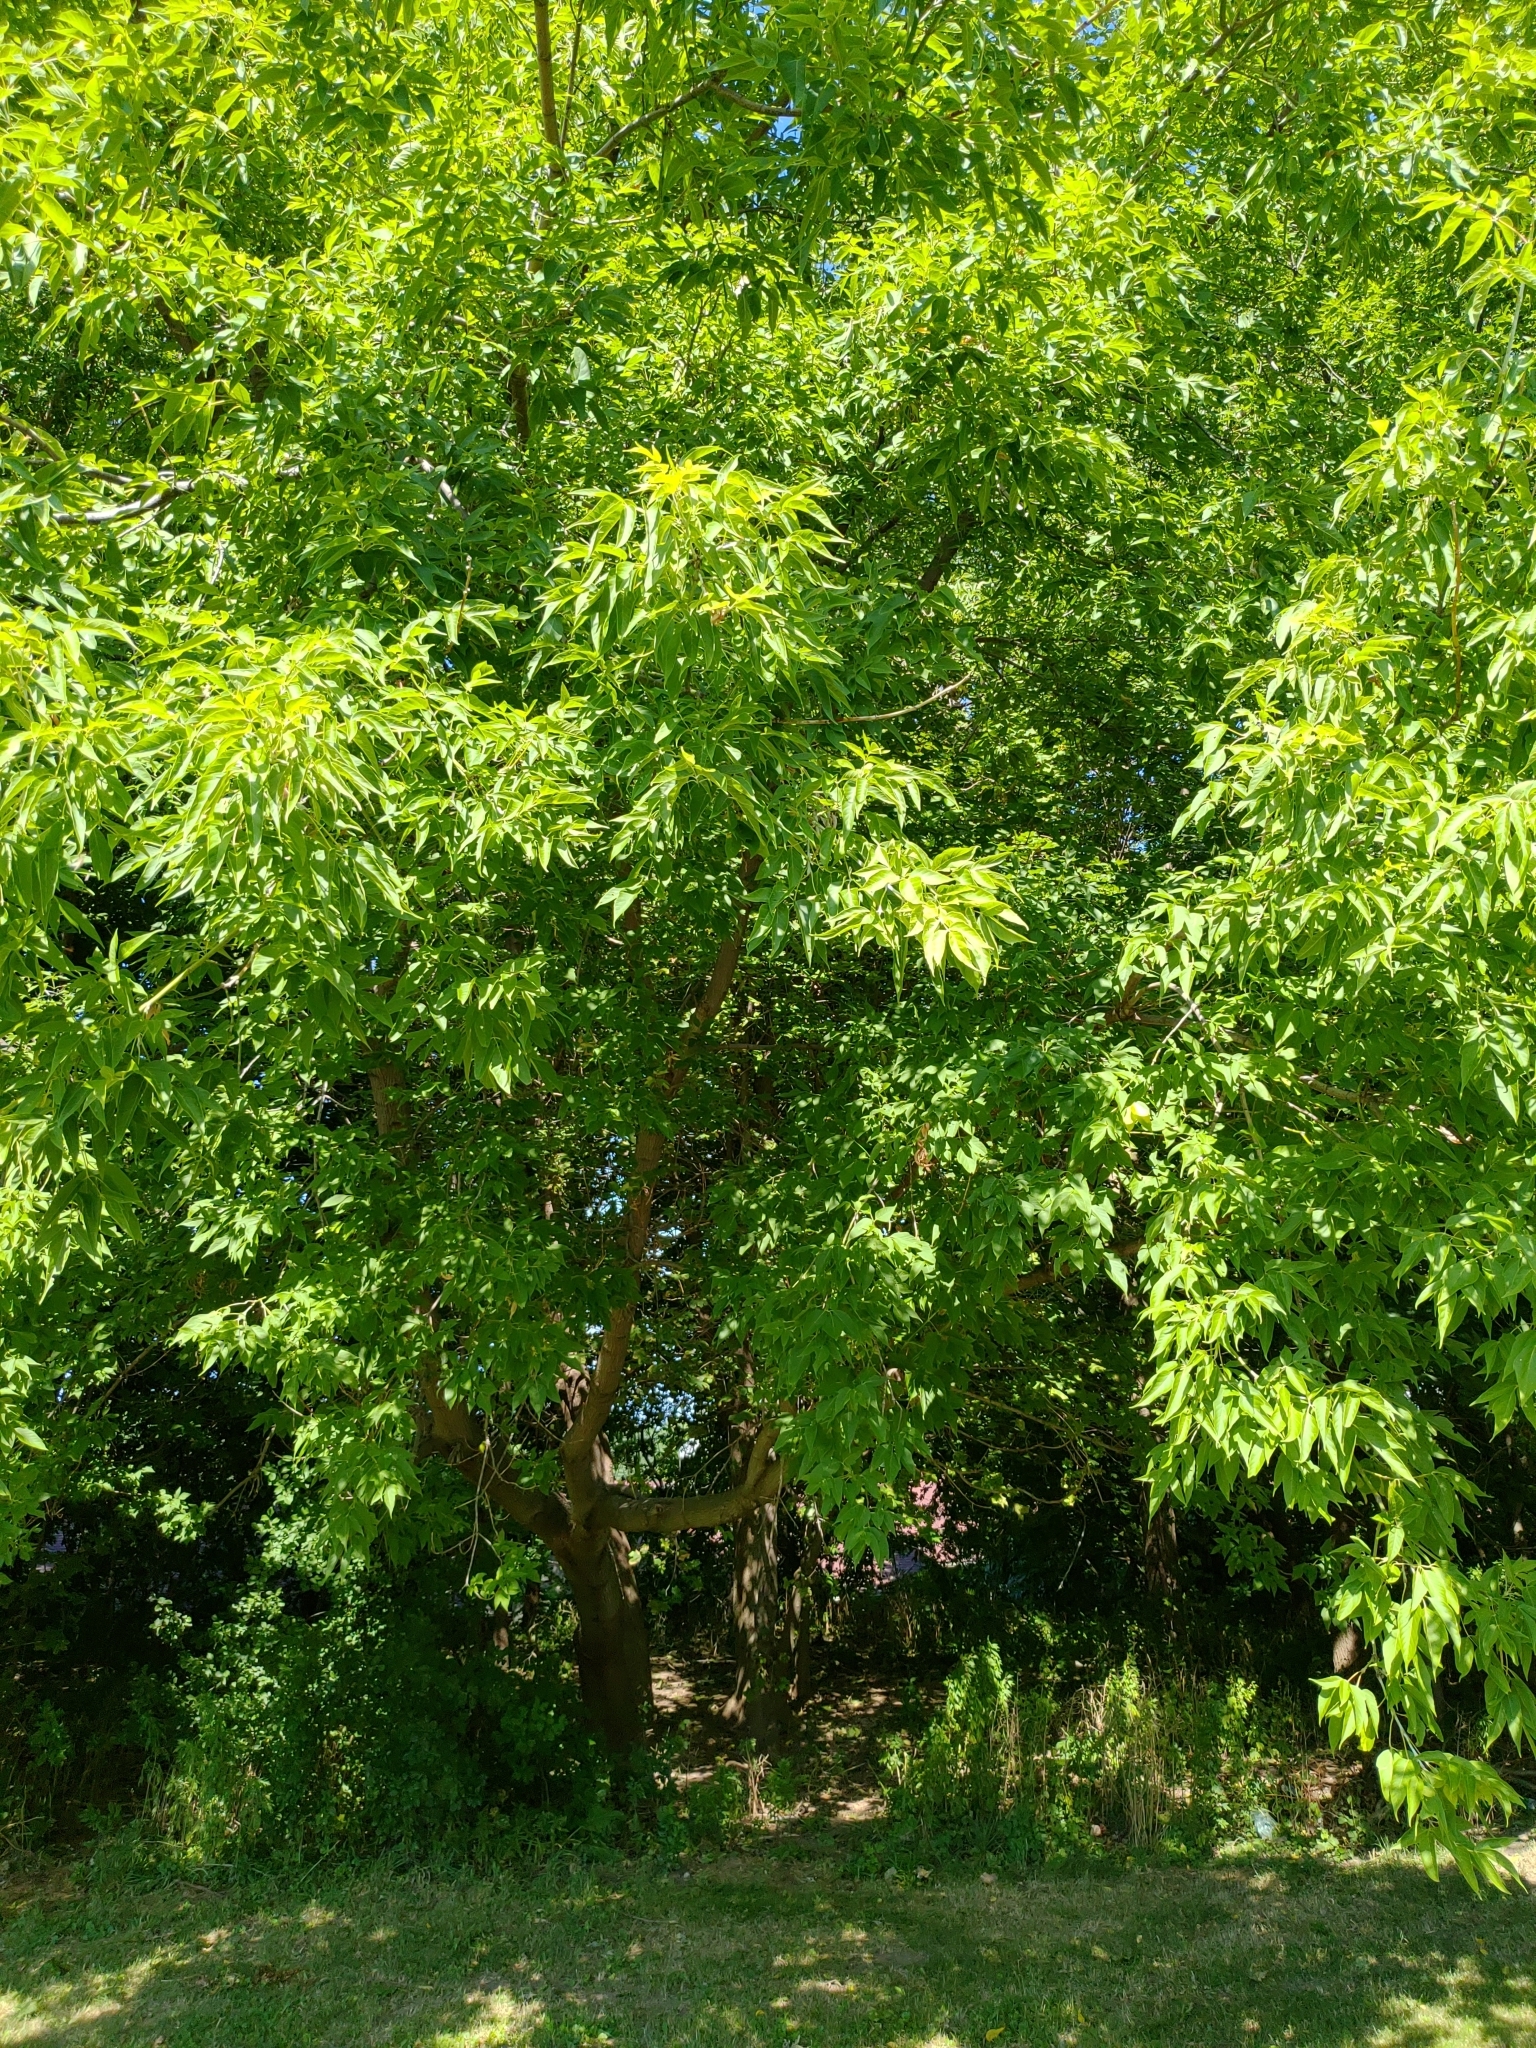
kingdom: Plantae
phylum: Tracheophyta
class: Magnoliopsida
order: Sapindales
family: Sapindaceae
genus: Acer
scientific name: Acer negundo
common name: Ashleaf maple
